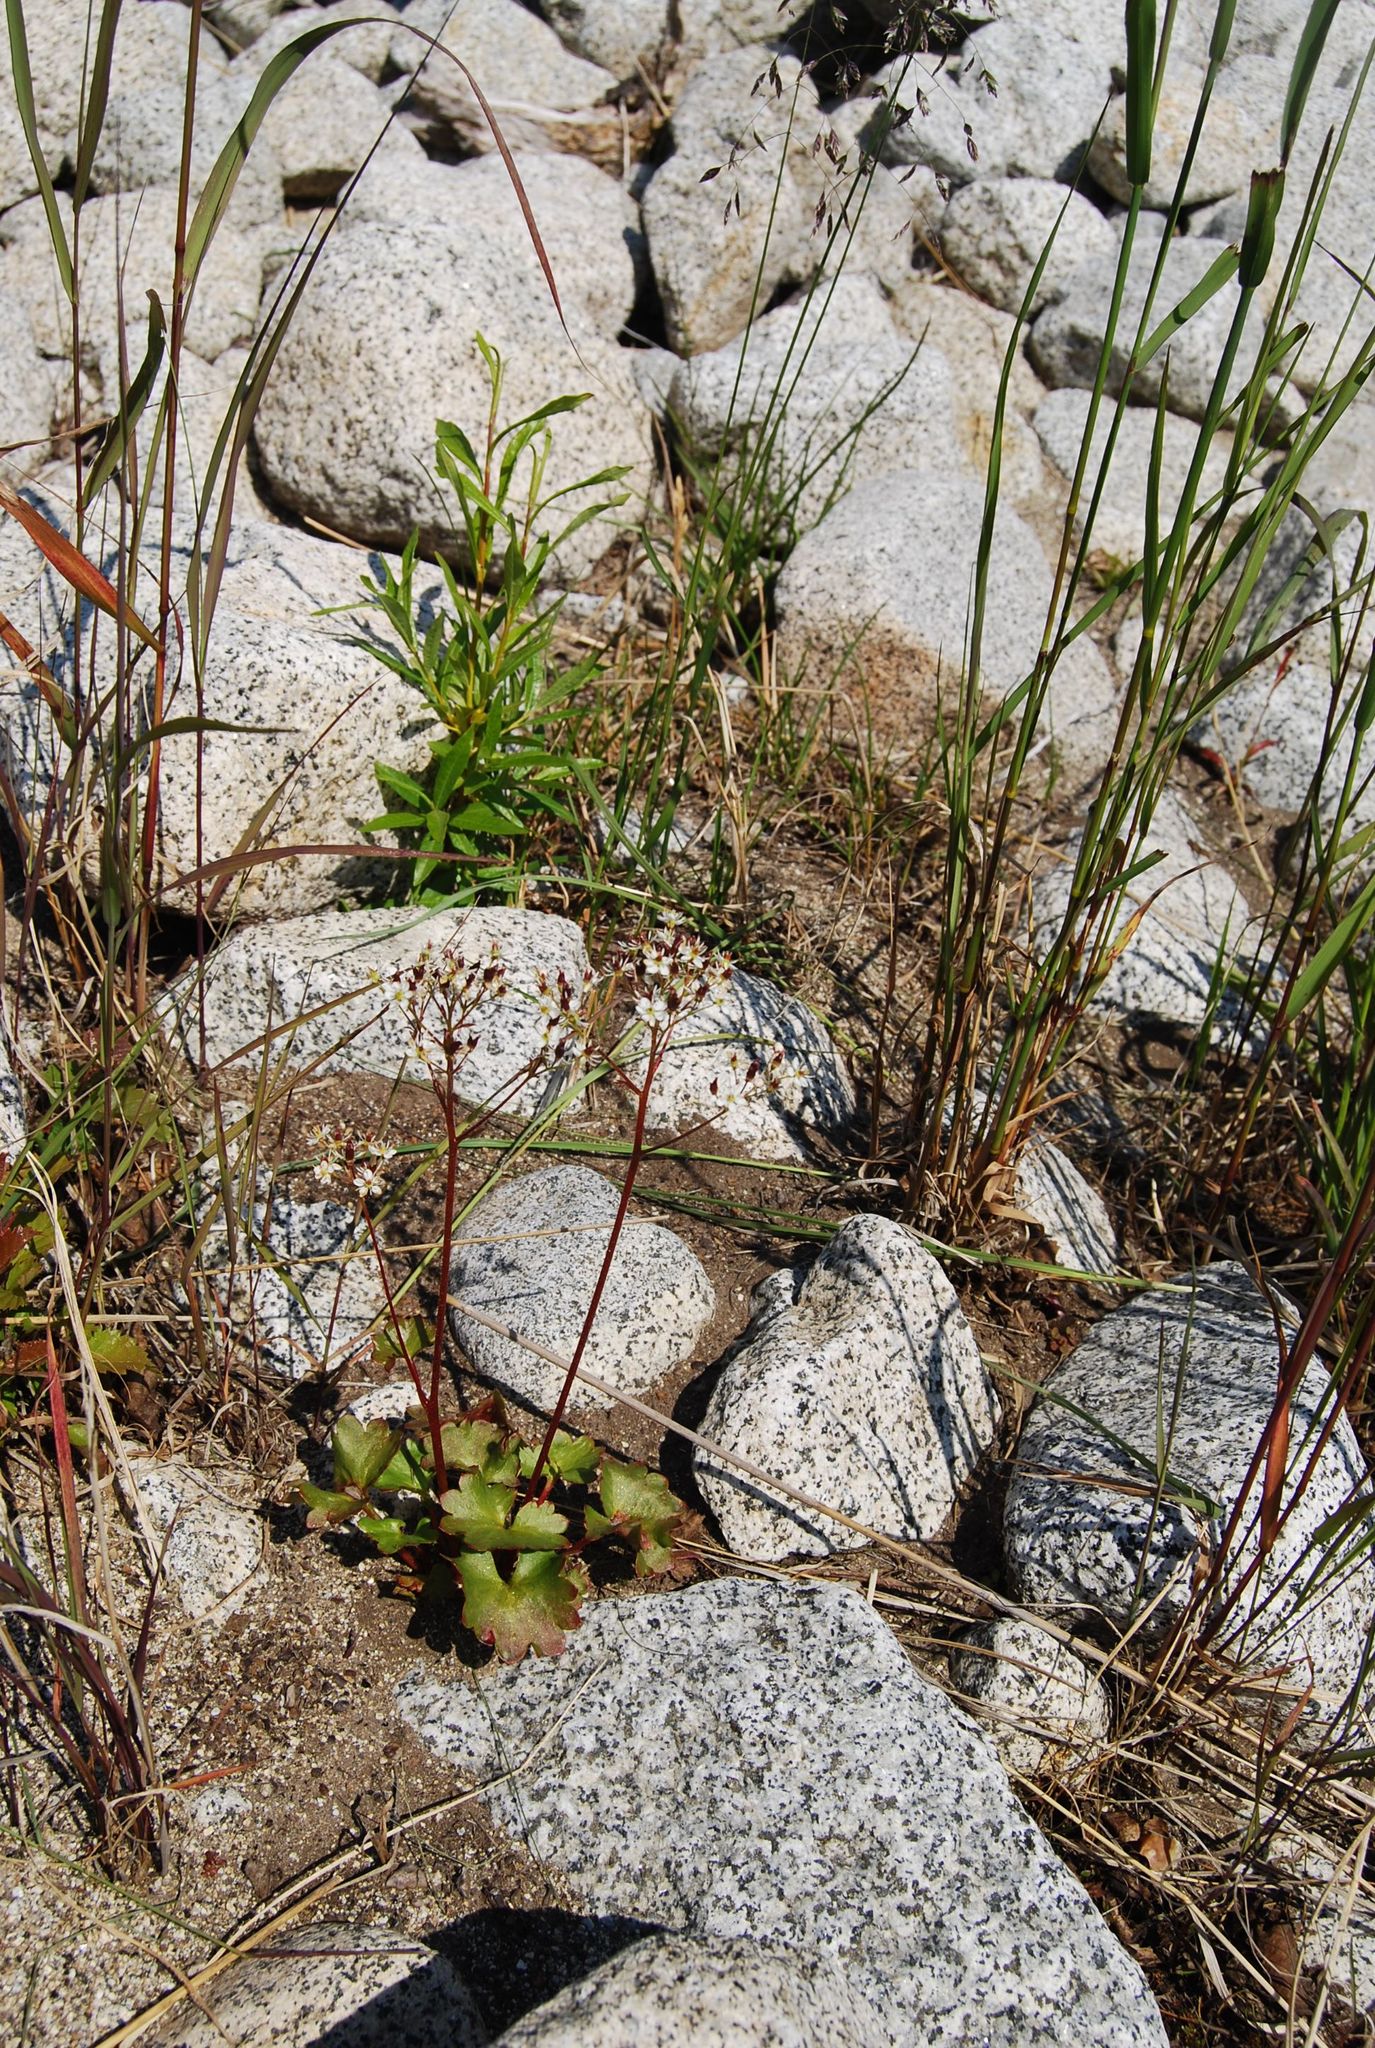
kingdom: Plantae
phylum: Tracheophyta
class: Magnoliopsida
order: Saxifragales
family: Saxifragaceae
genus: Micranthes
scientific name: Micranthes nelsoniana
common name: Nelson's saxifrage
